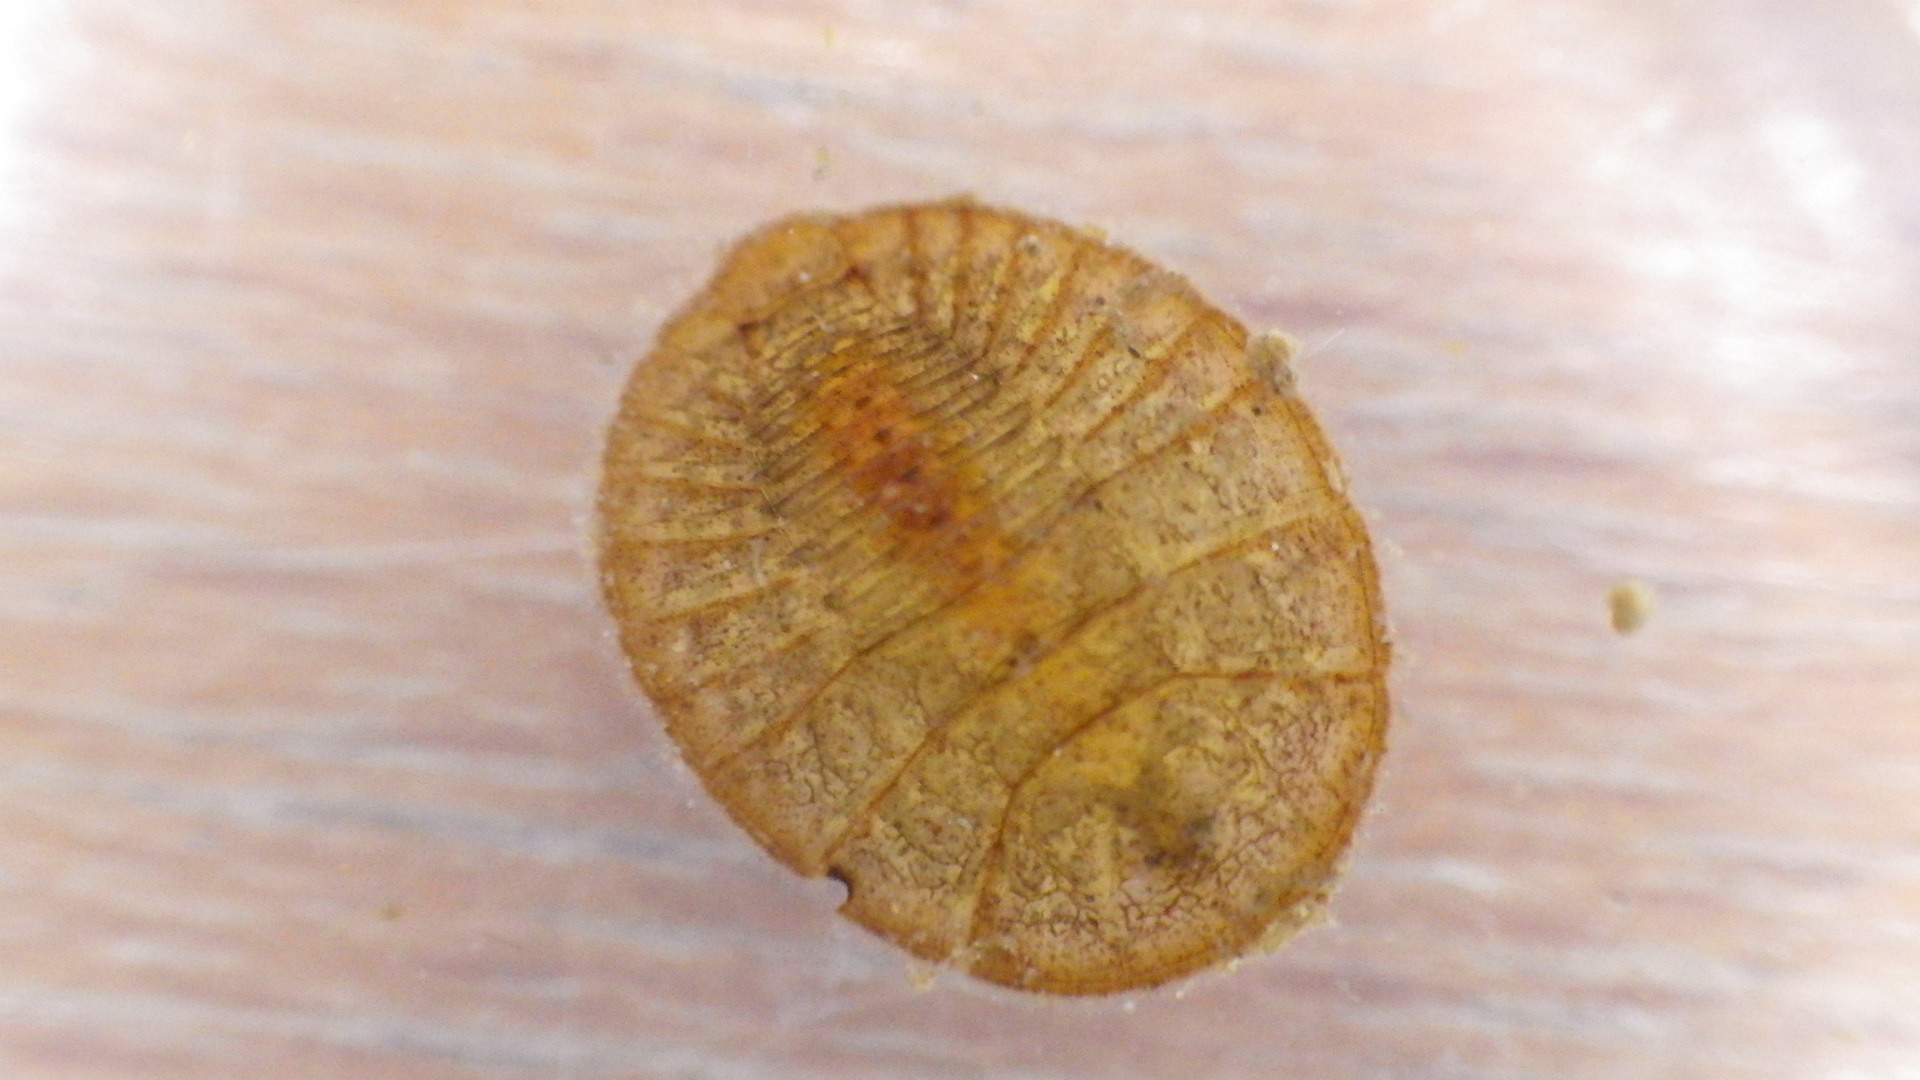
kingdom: Animalia
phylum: Arthropoda
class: Insecta
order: Coleoptera
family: Psephenidae
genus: Psephenus
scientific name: Psephenus herricki
